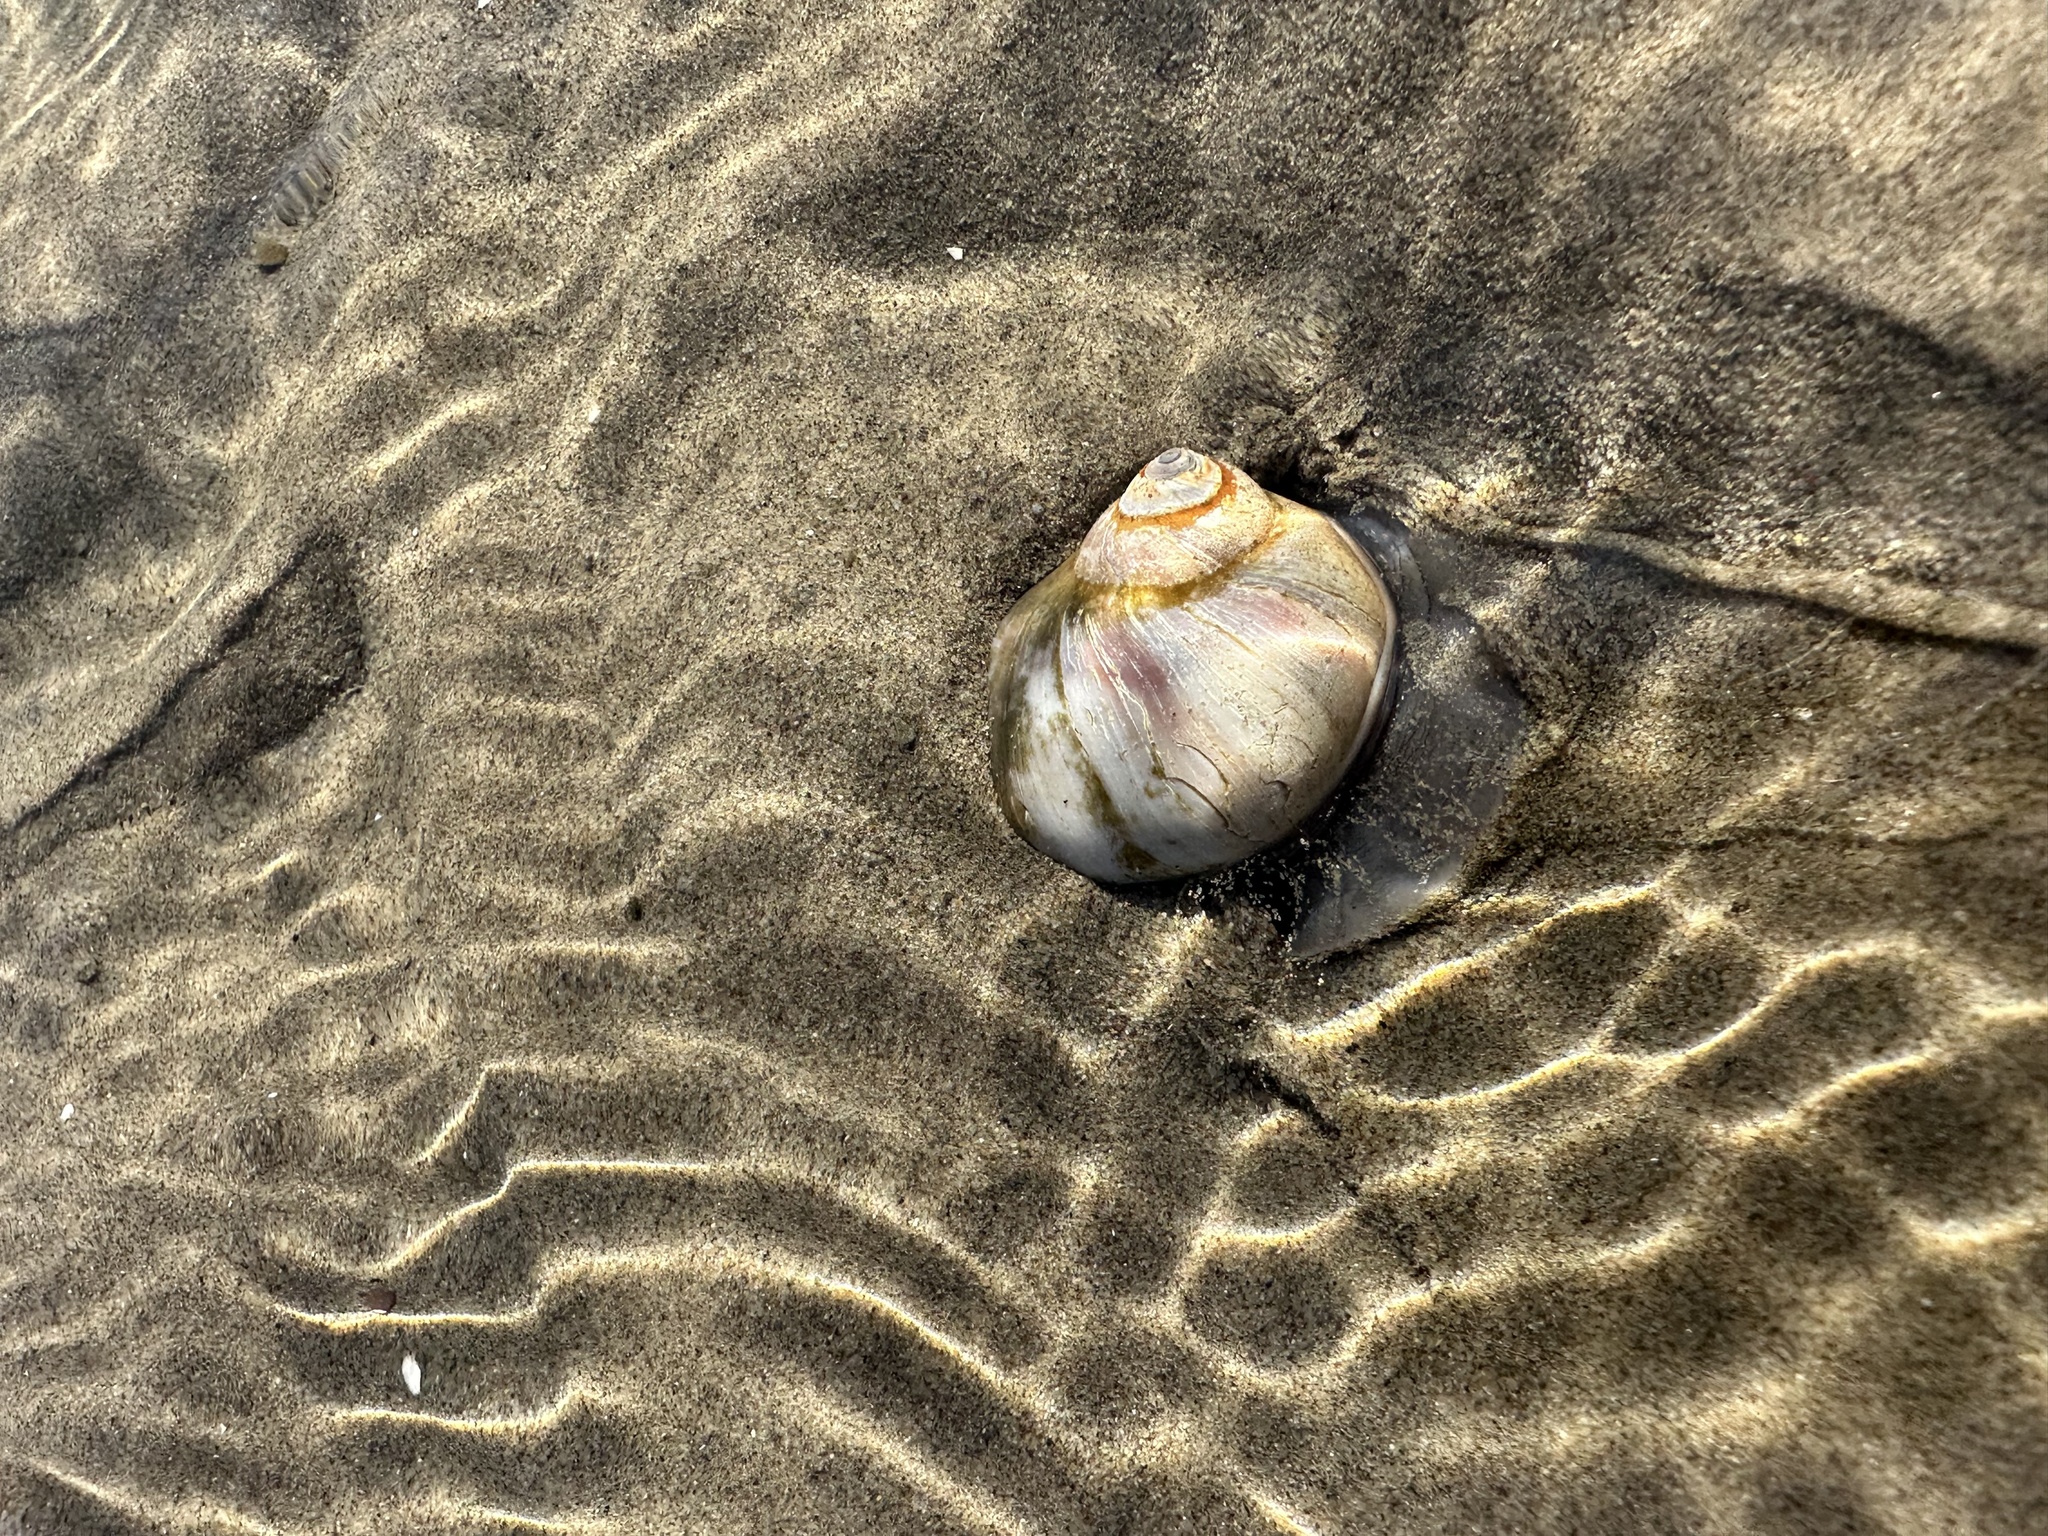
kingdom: Animalia
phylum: Mollusca
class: Gastropoda
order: Littorinimorpha
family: Naticidae
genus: Euspira
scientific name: Euspira heros
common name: Common northern moonsnail
